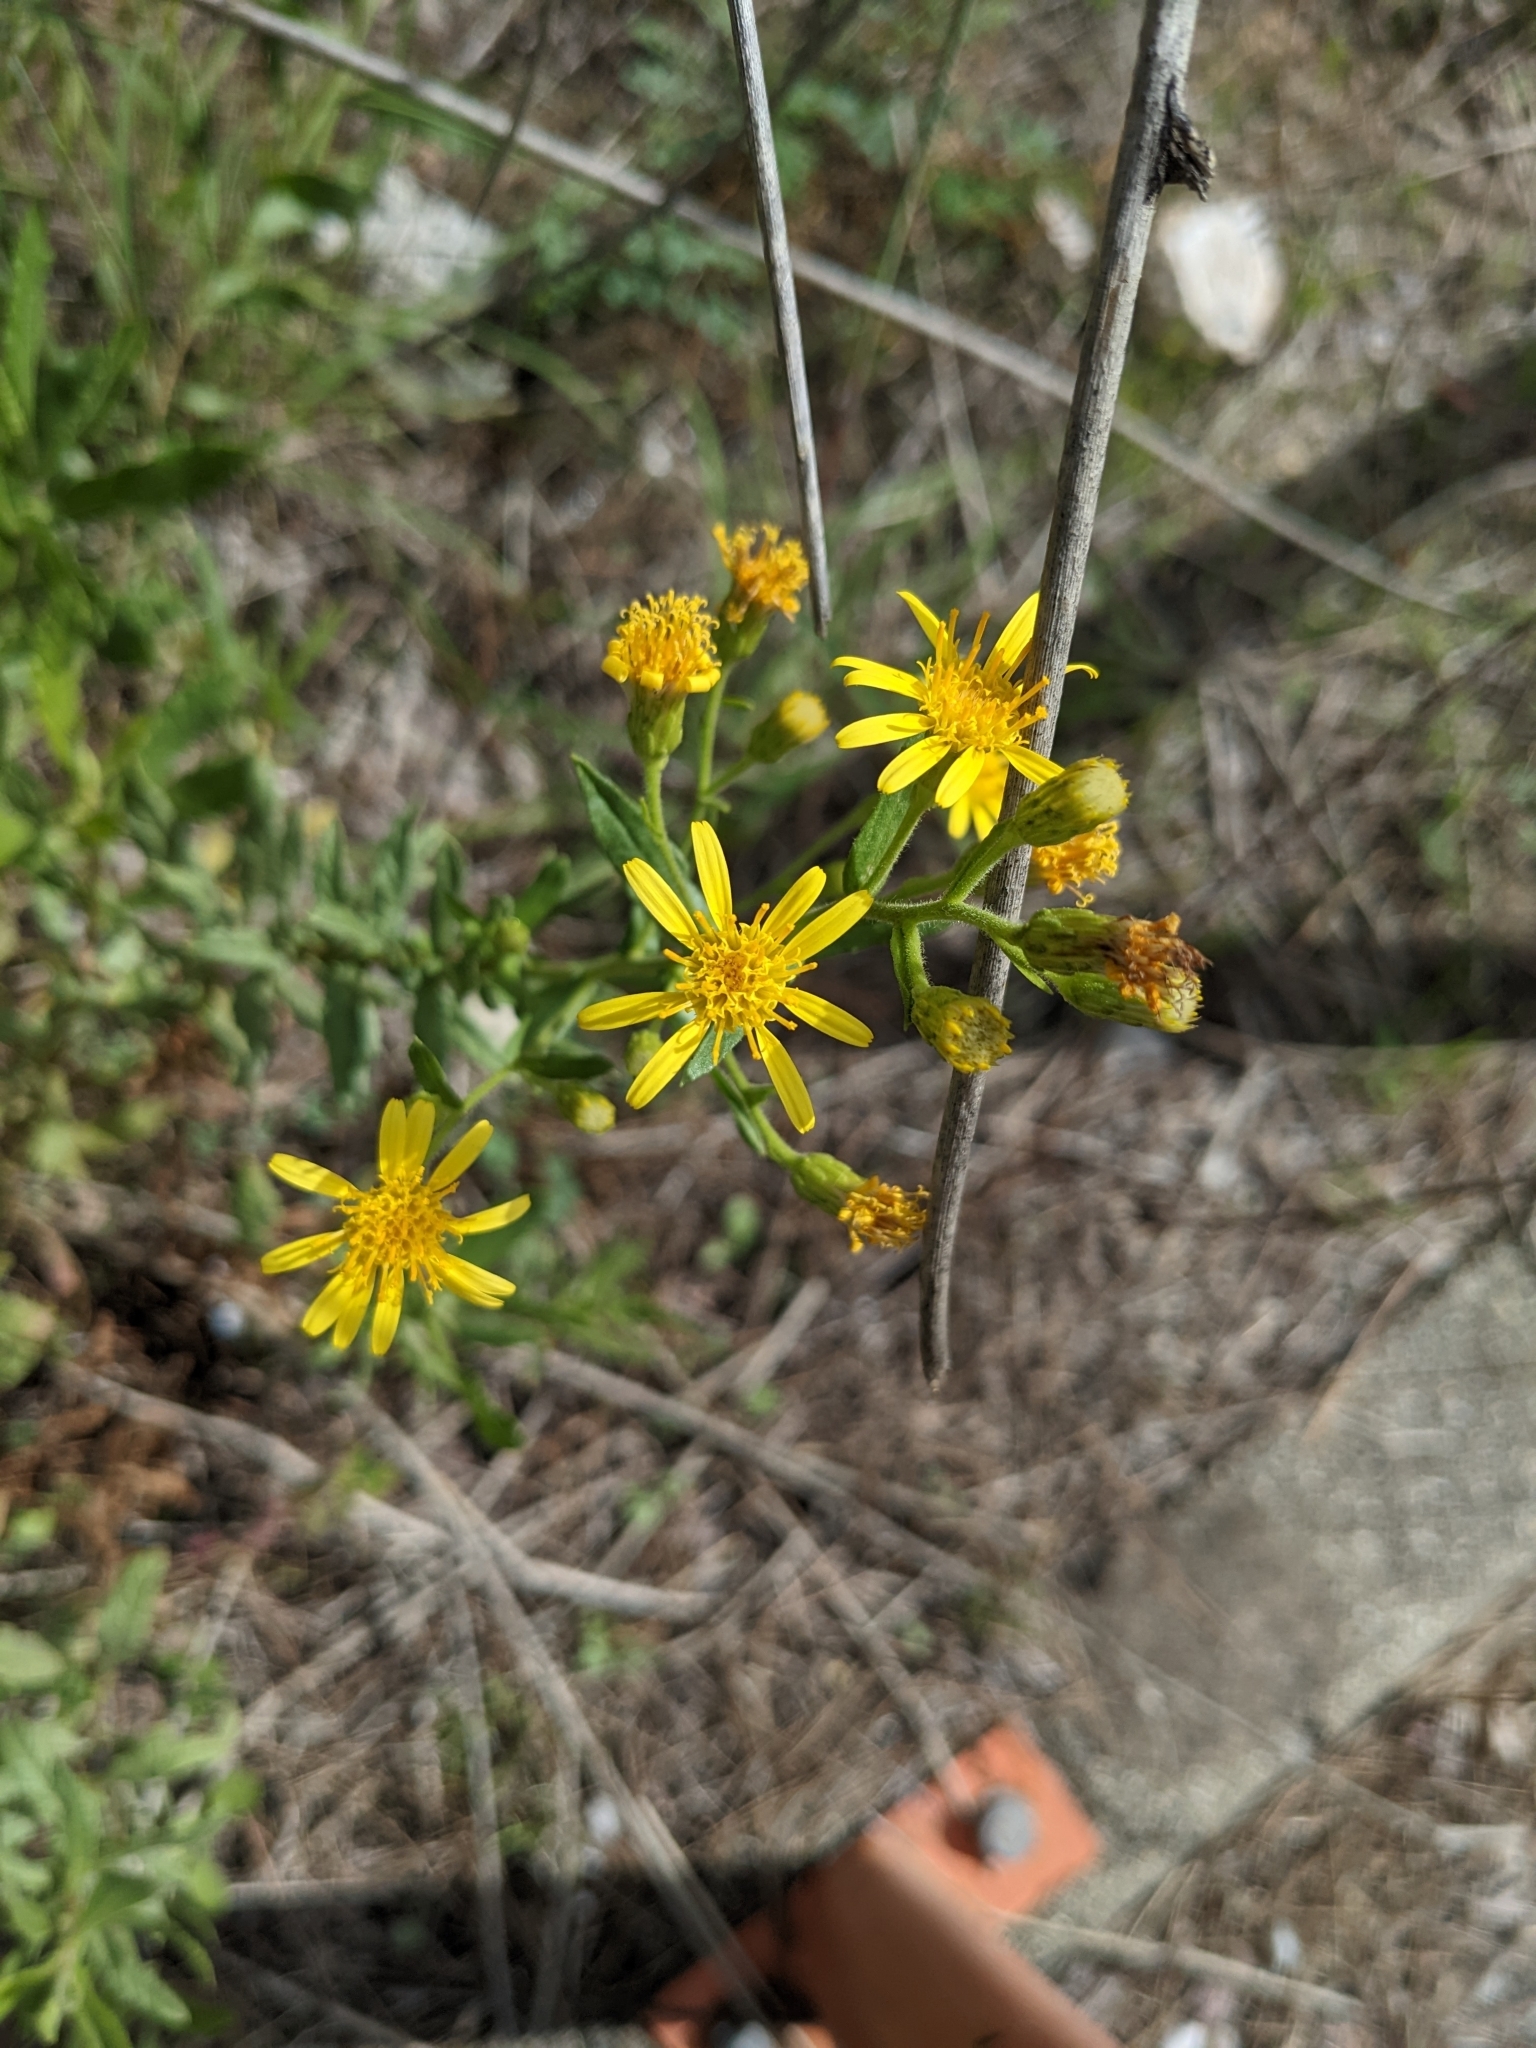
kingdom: Plantae
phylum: Tracheophyta
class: Magnoliopsida
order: Asterales
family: Asteraceae
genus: Dittrichia
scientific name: Dittrichia viscosa
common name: Woody fleabane
